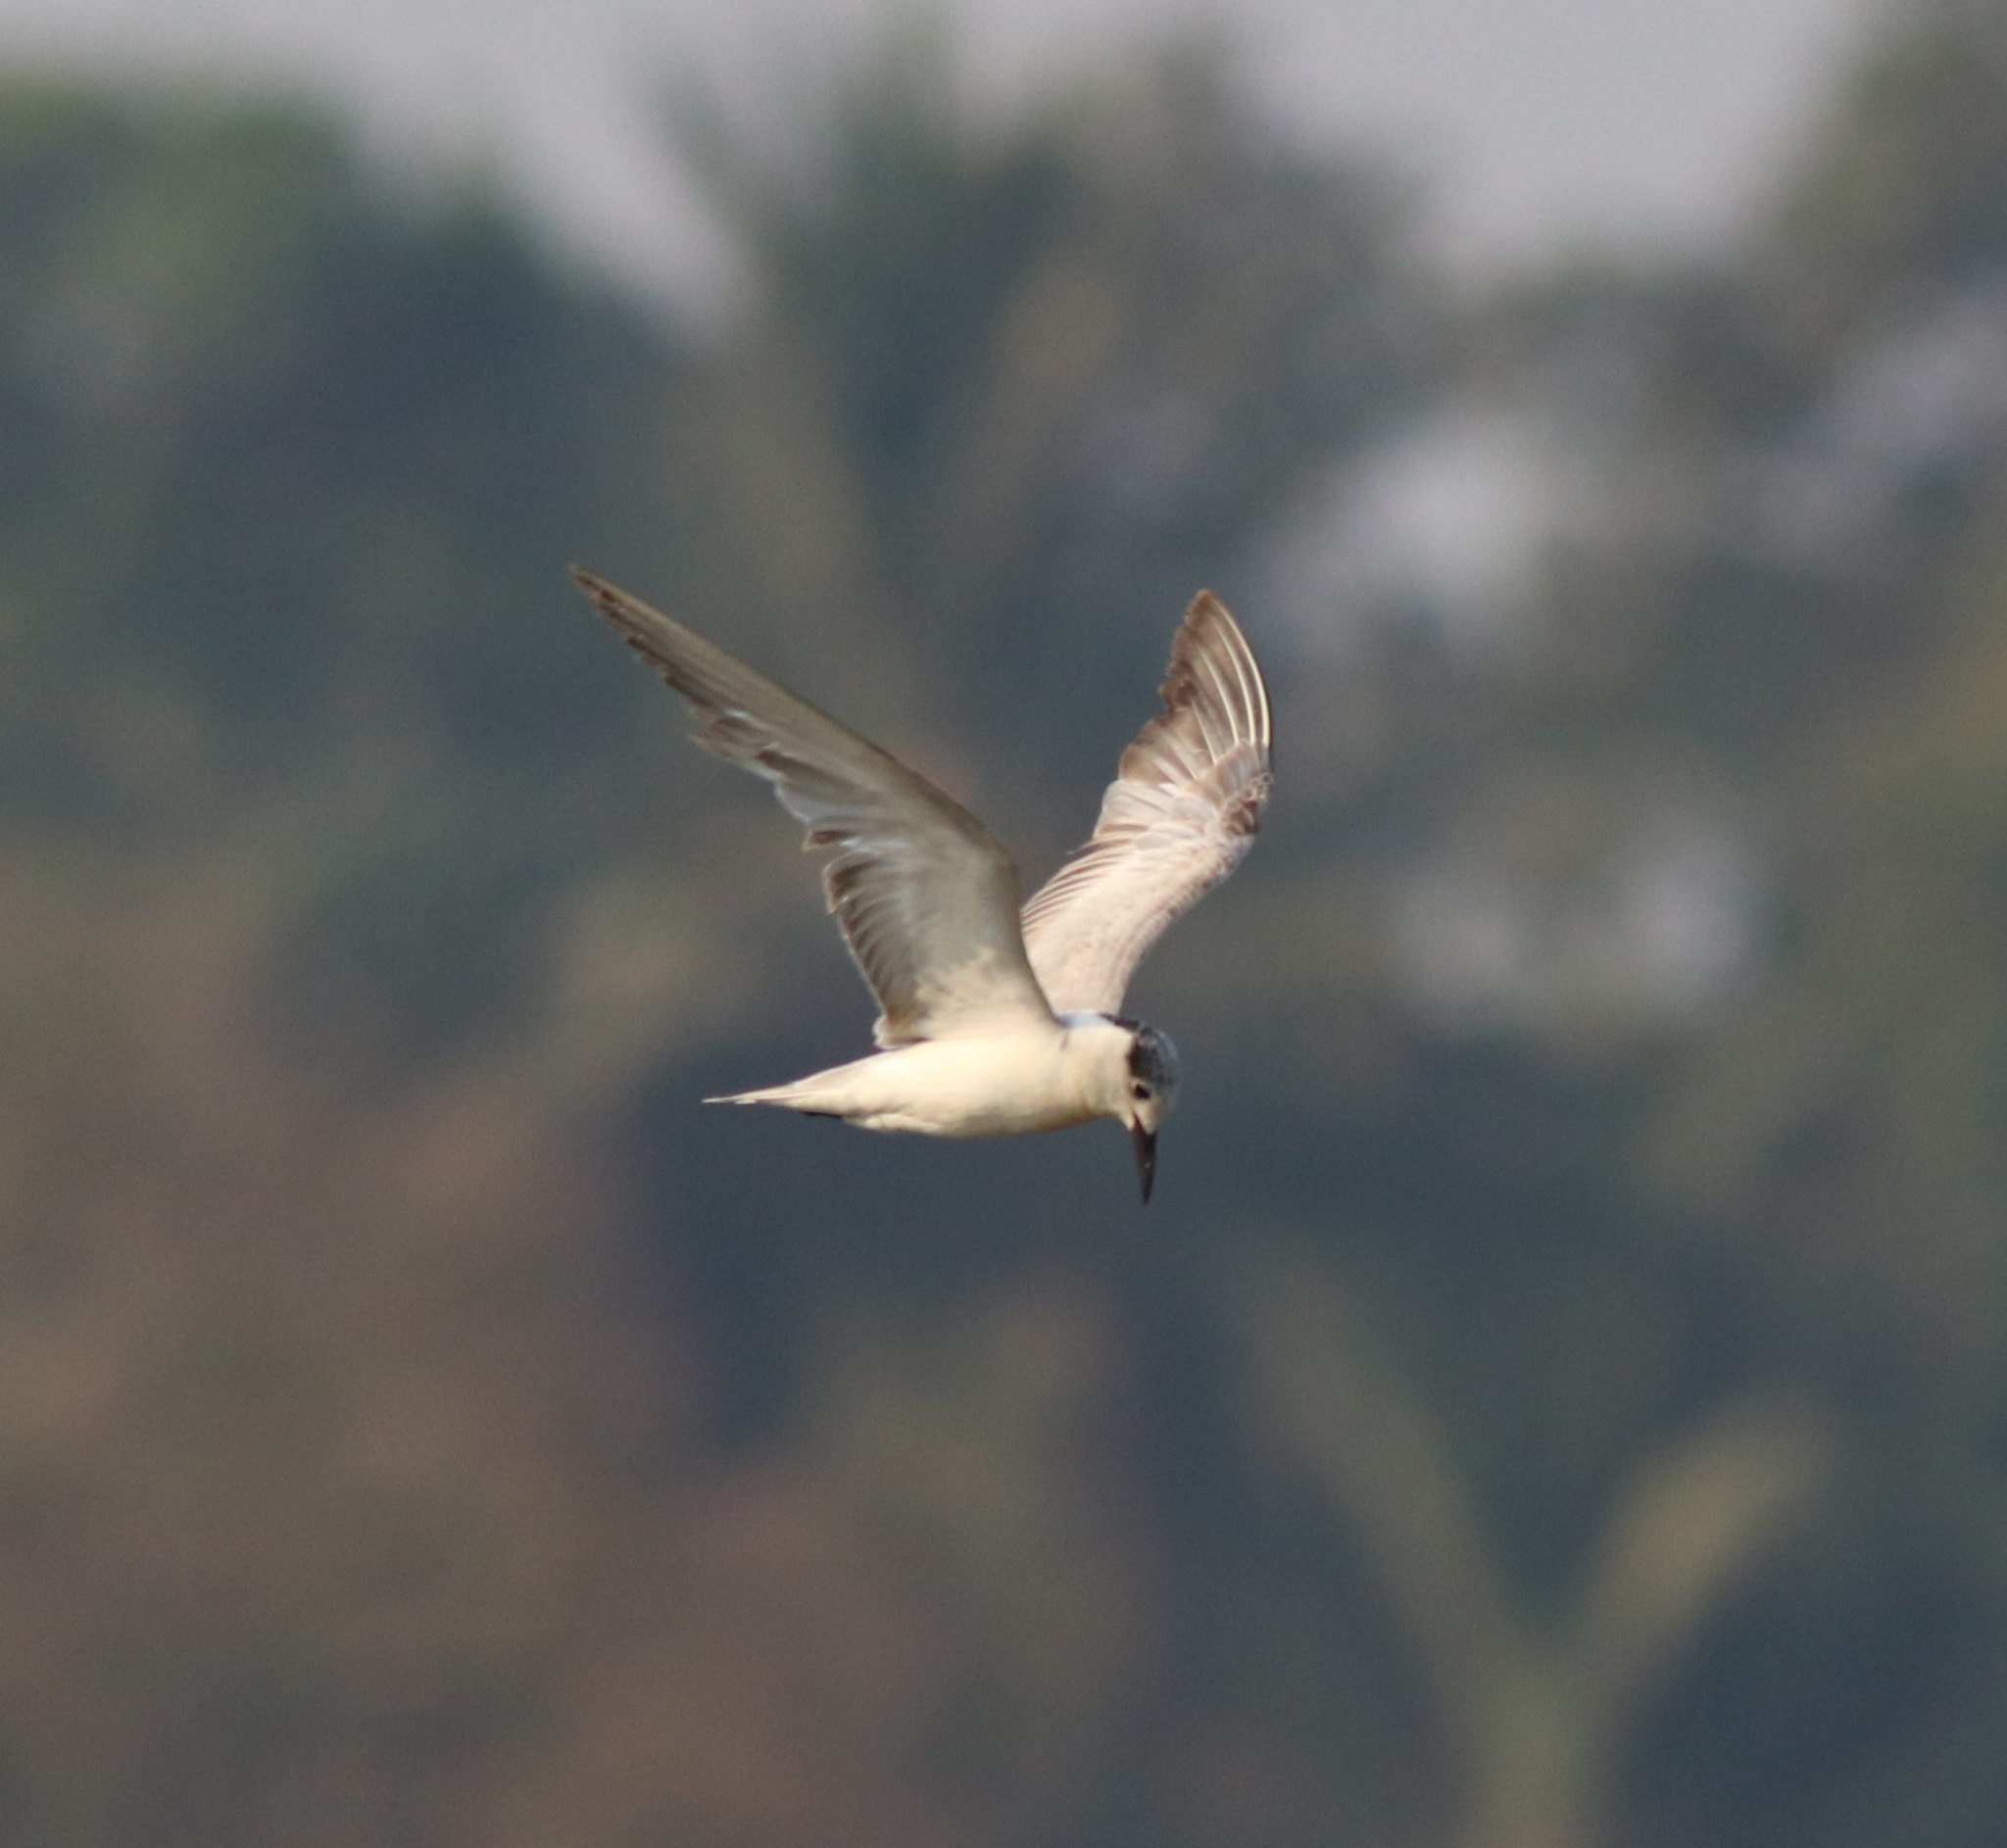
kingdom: Animalia
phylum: Chordata
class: Aves
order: Charadriiformes
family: Laridae
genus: Chlidonias
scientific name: Chlidonias hybrida
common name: Whiskered tern
